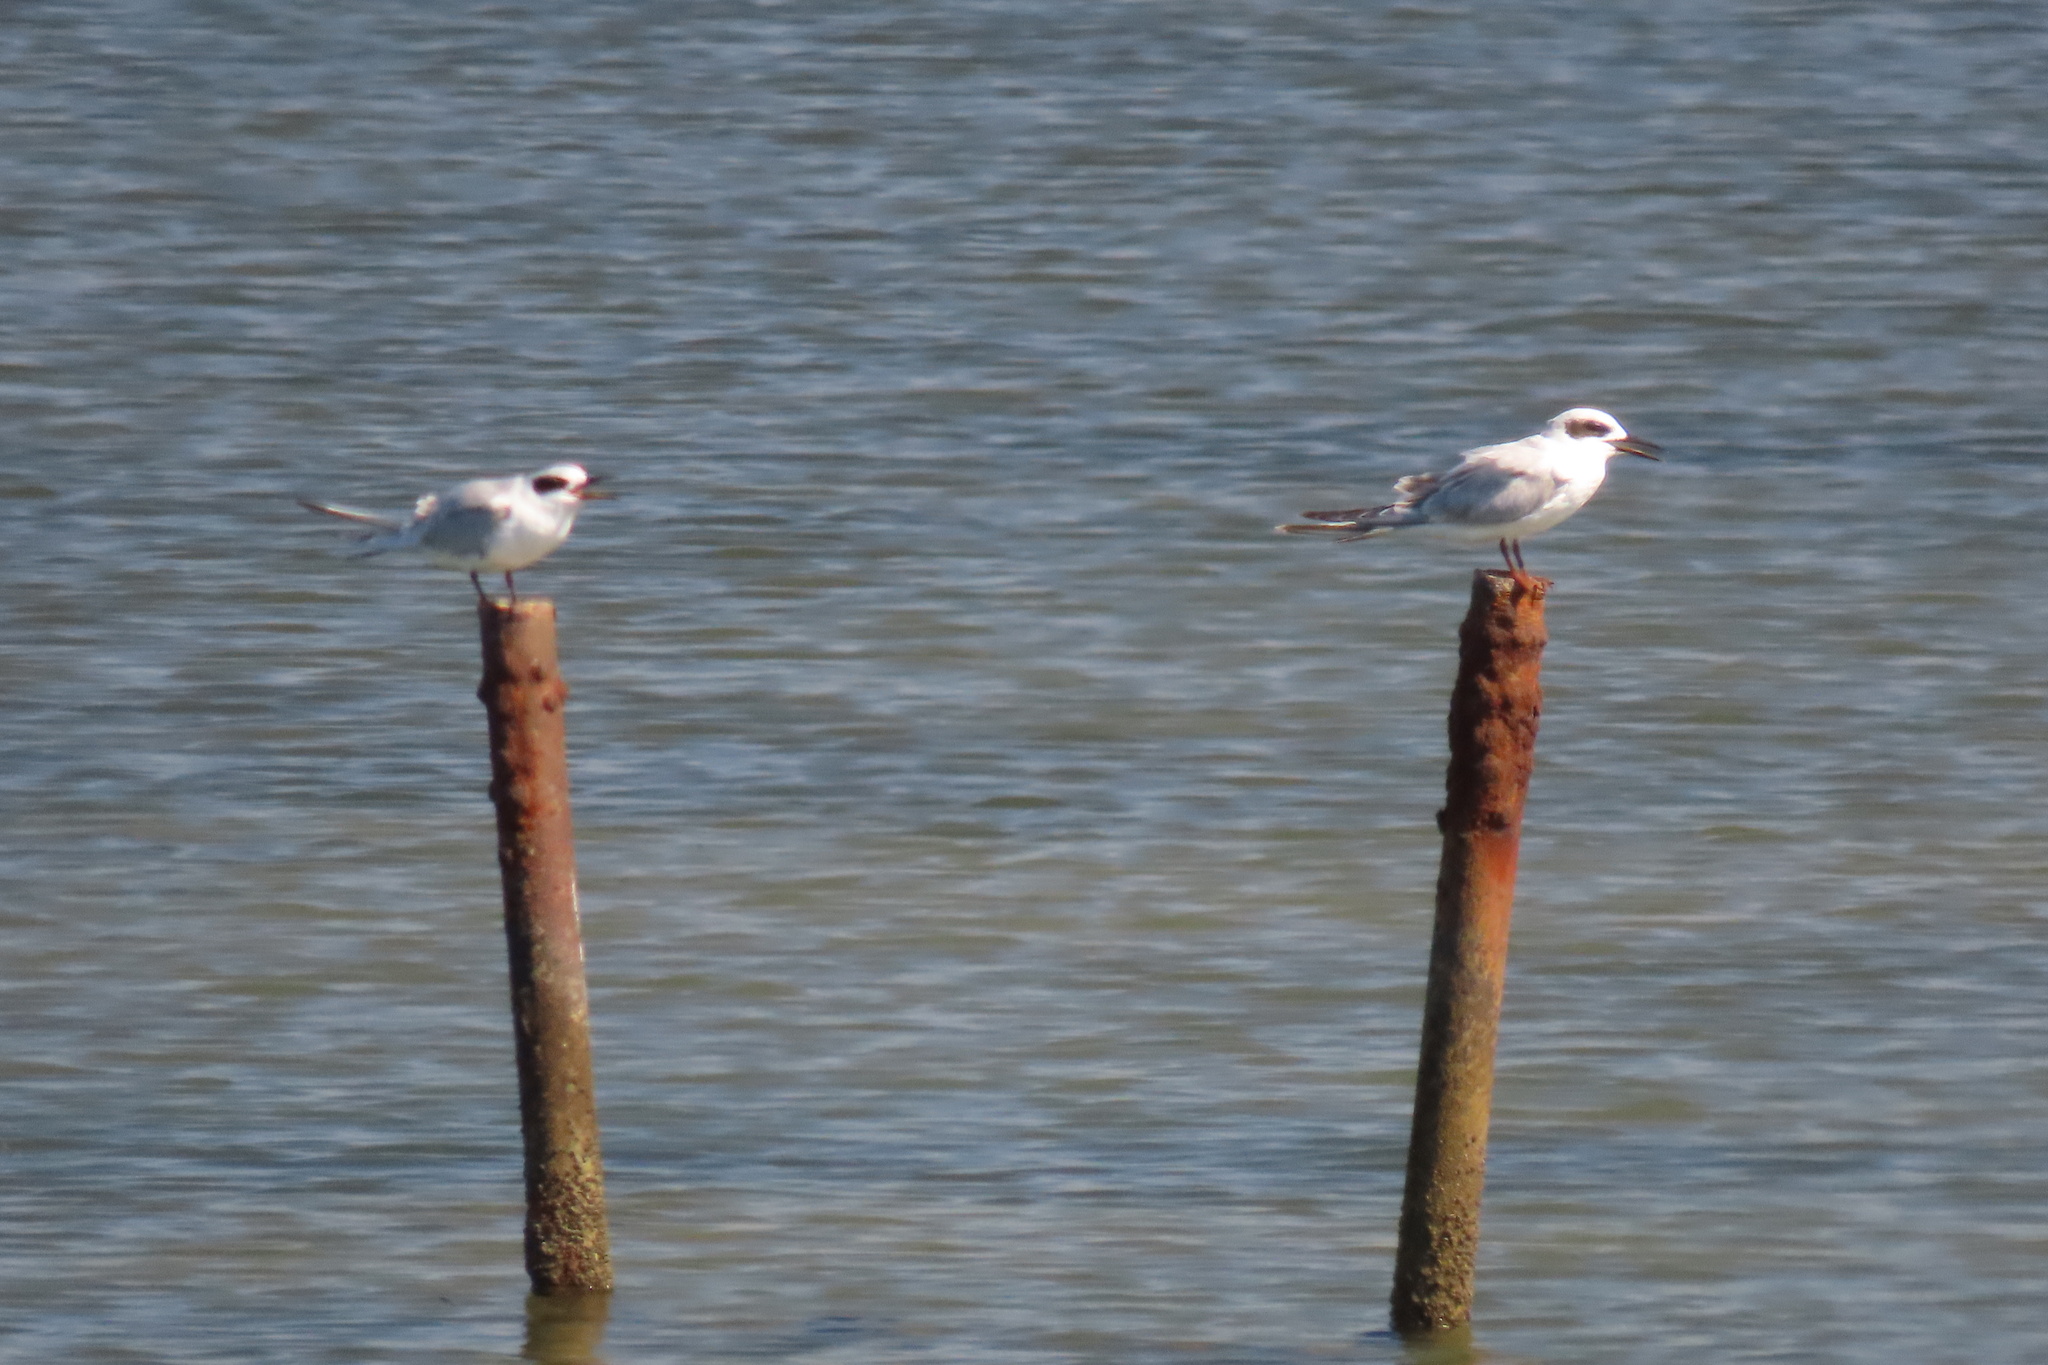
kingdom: Animalia
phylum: Chordata
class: Aves
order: Charadriiformes
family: Laridae
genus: Sterna
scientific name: Sterna forsteri
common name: Forster's tern
